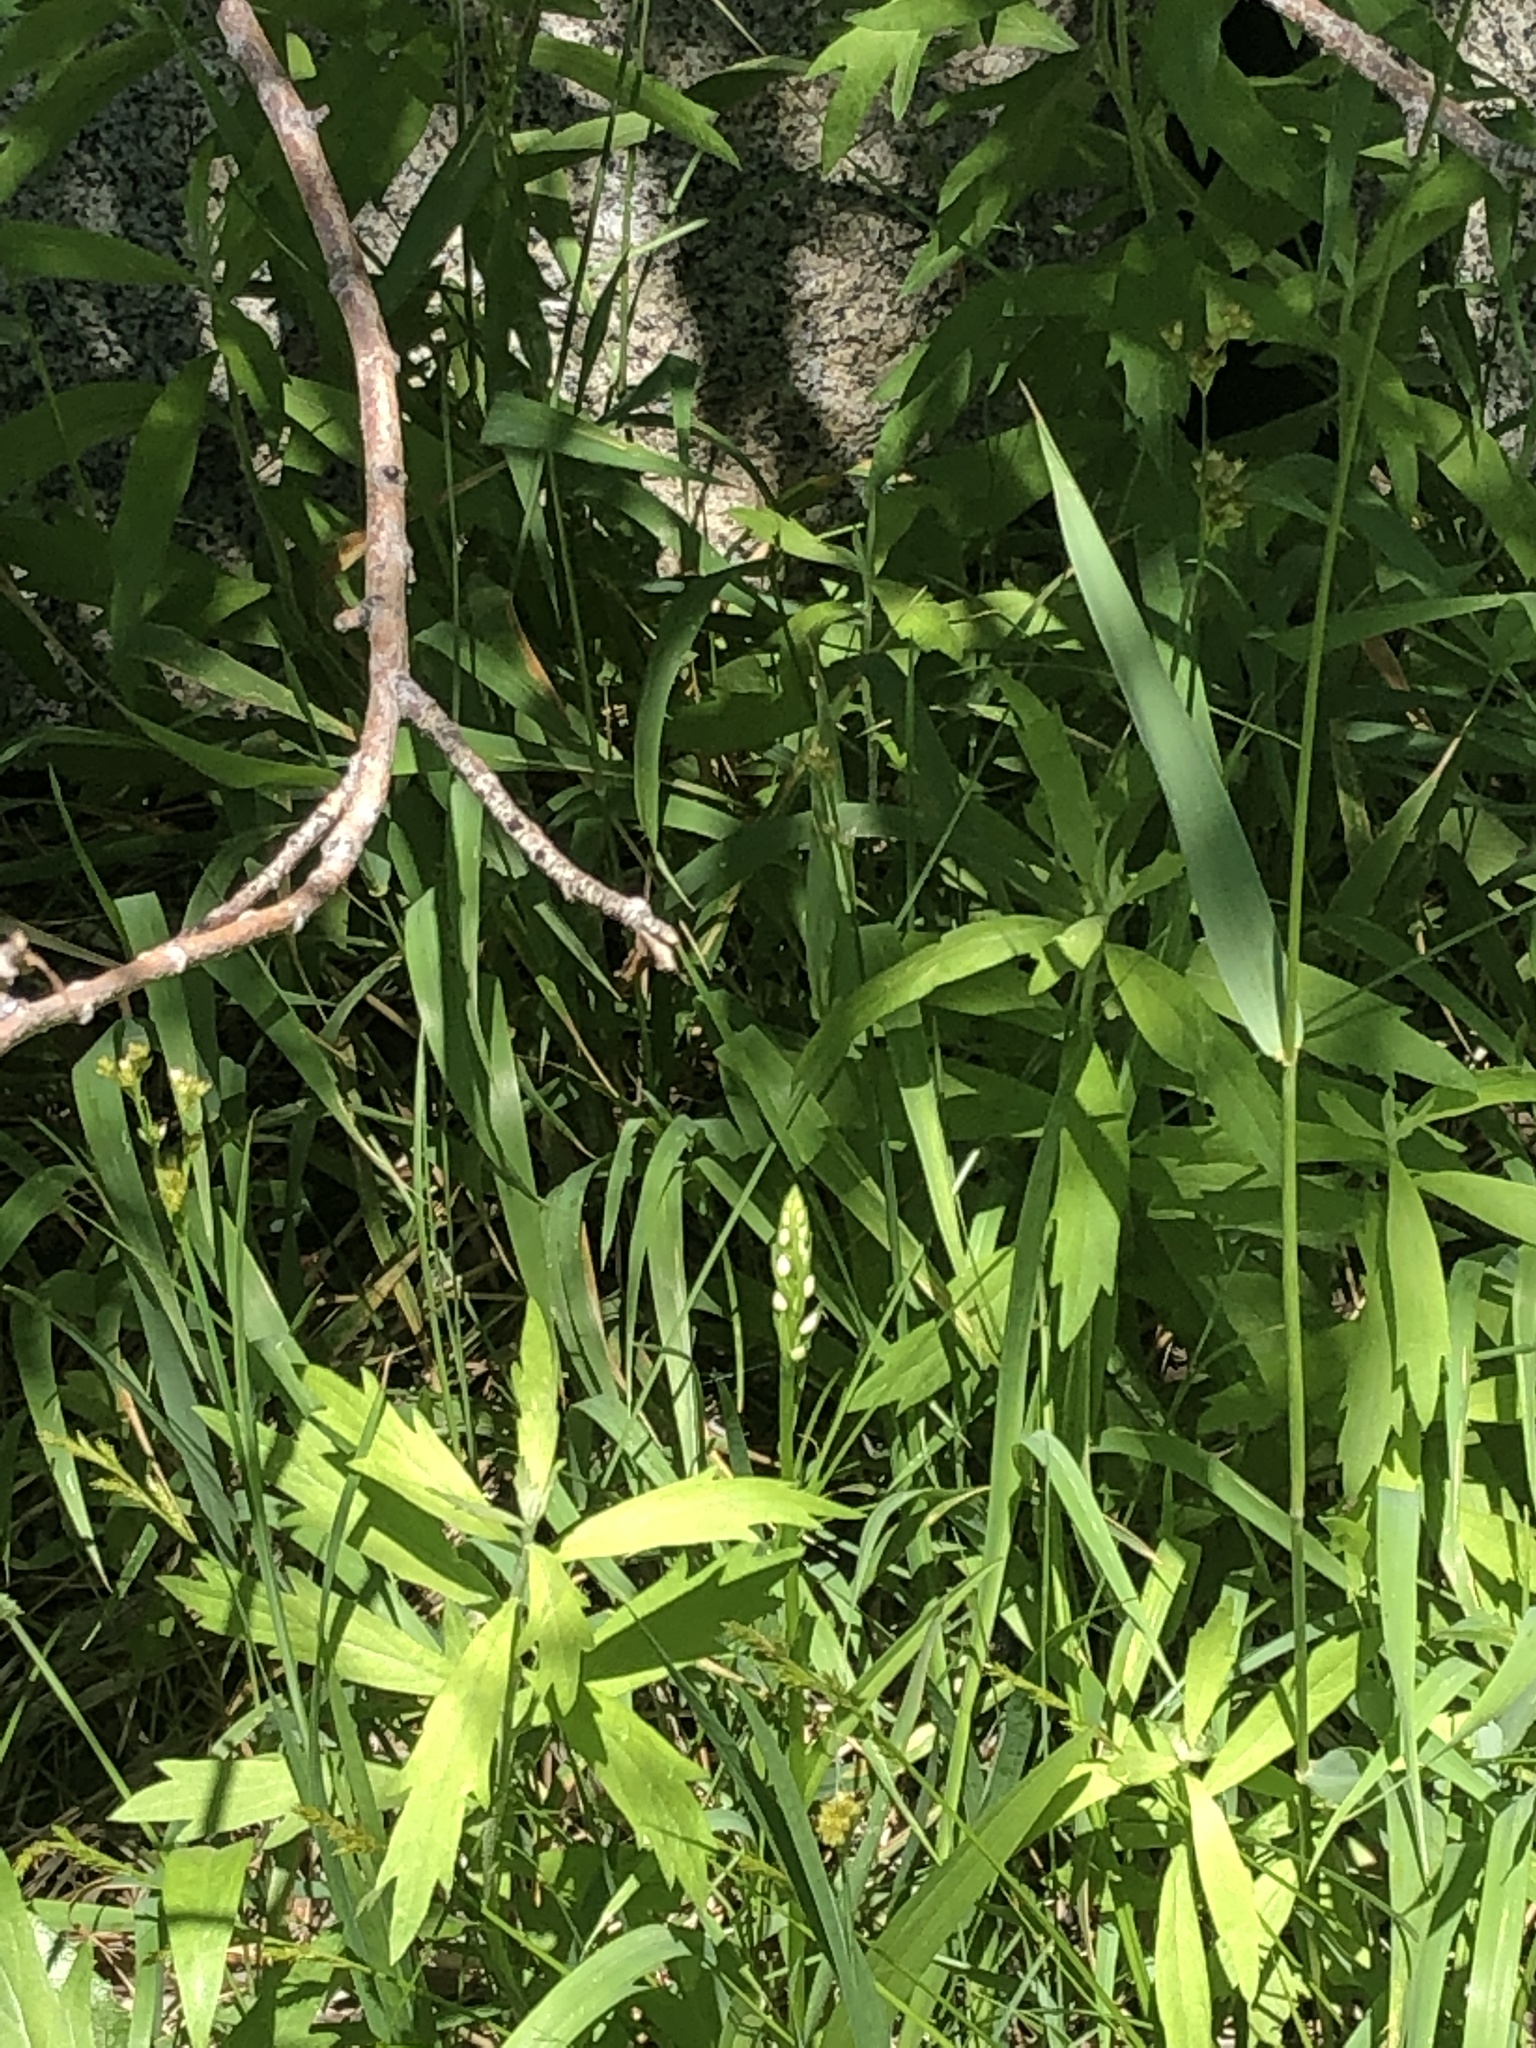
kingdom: Plantae
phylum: Tracheophyta
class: Liliopsida
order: Asparagales
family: Orchidaceae
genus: Platanthera
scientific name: Platanthera dilatata
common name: Bog candles
